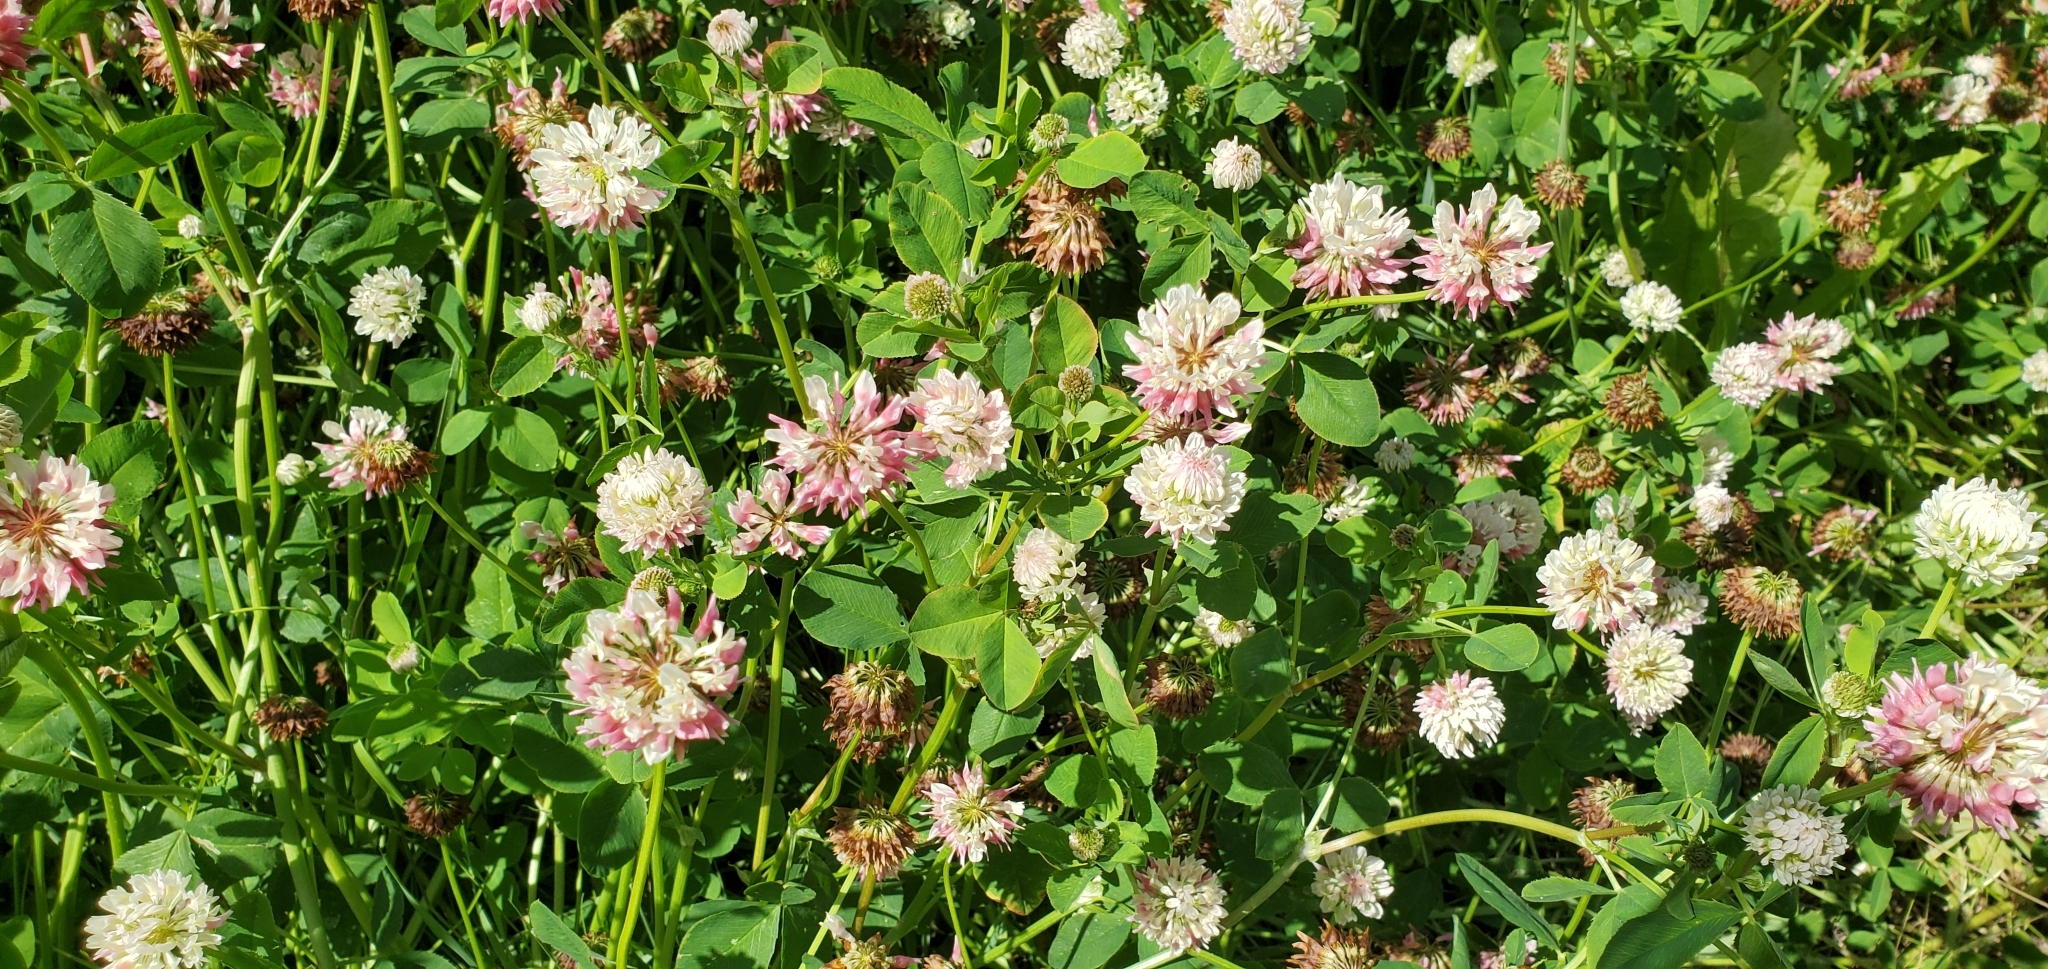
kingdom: Plantae
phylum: Tracheophyta
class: Magnoliopsida
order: Fabales
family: Fabaceae
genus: Trifolium
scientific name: Trifolium hybridum
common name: Alsike clover
